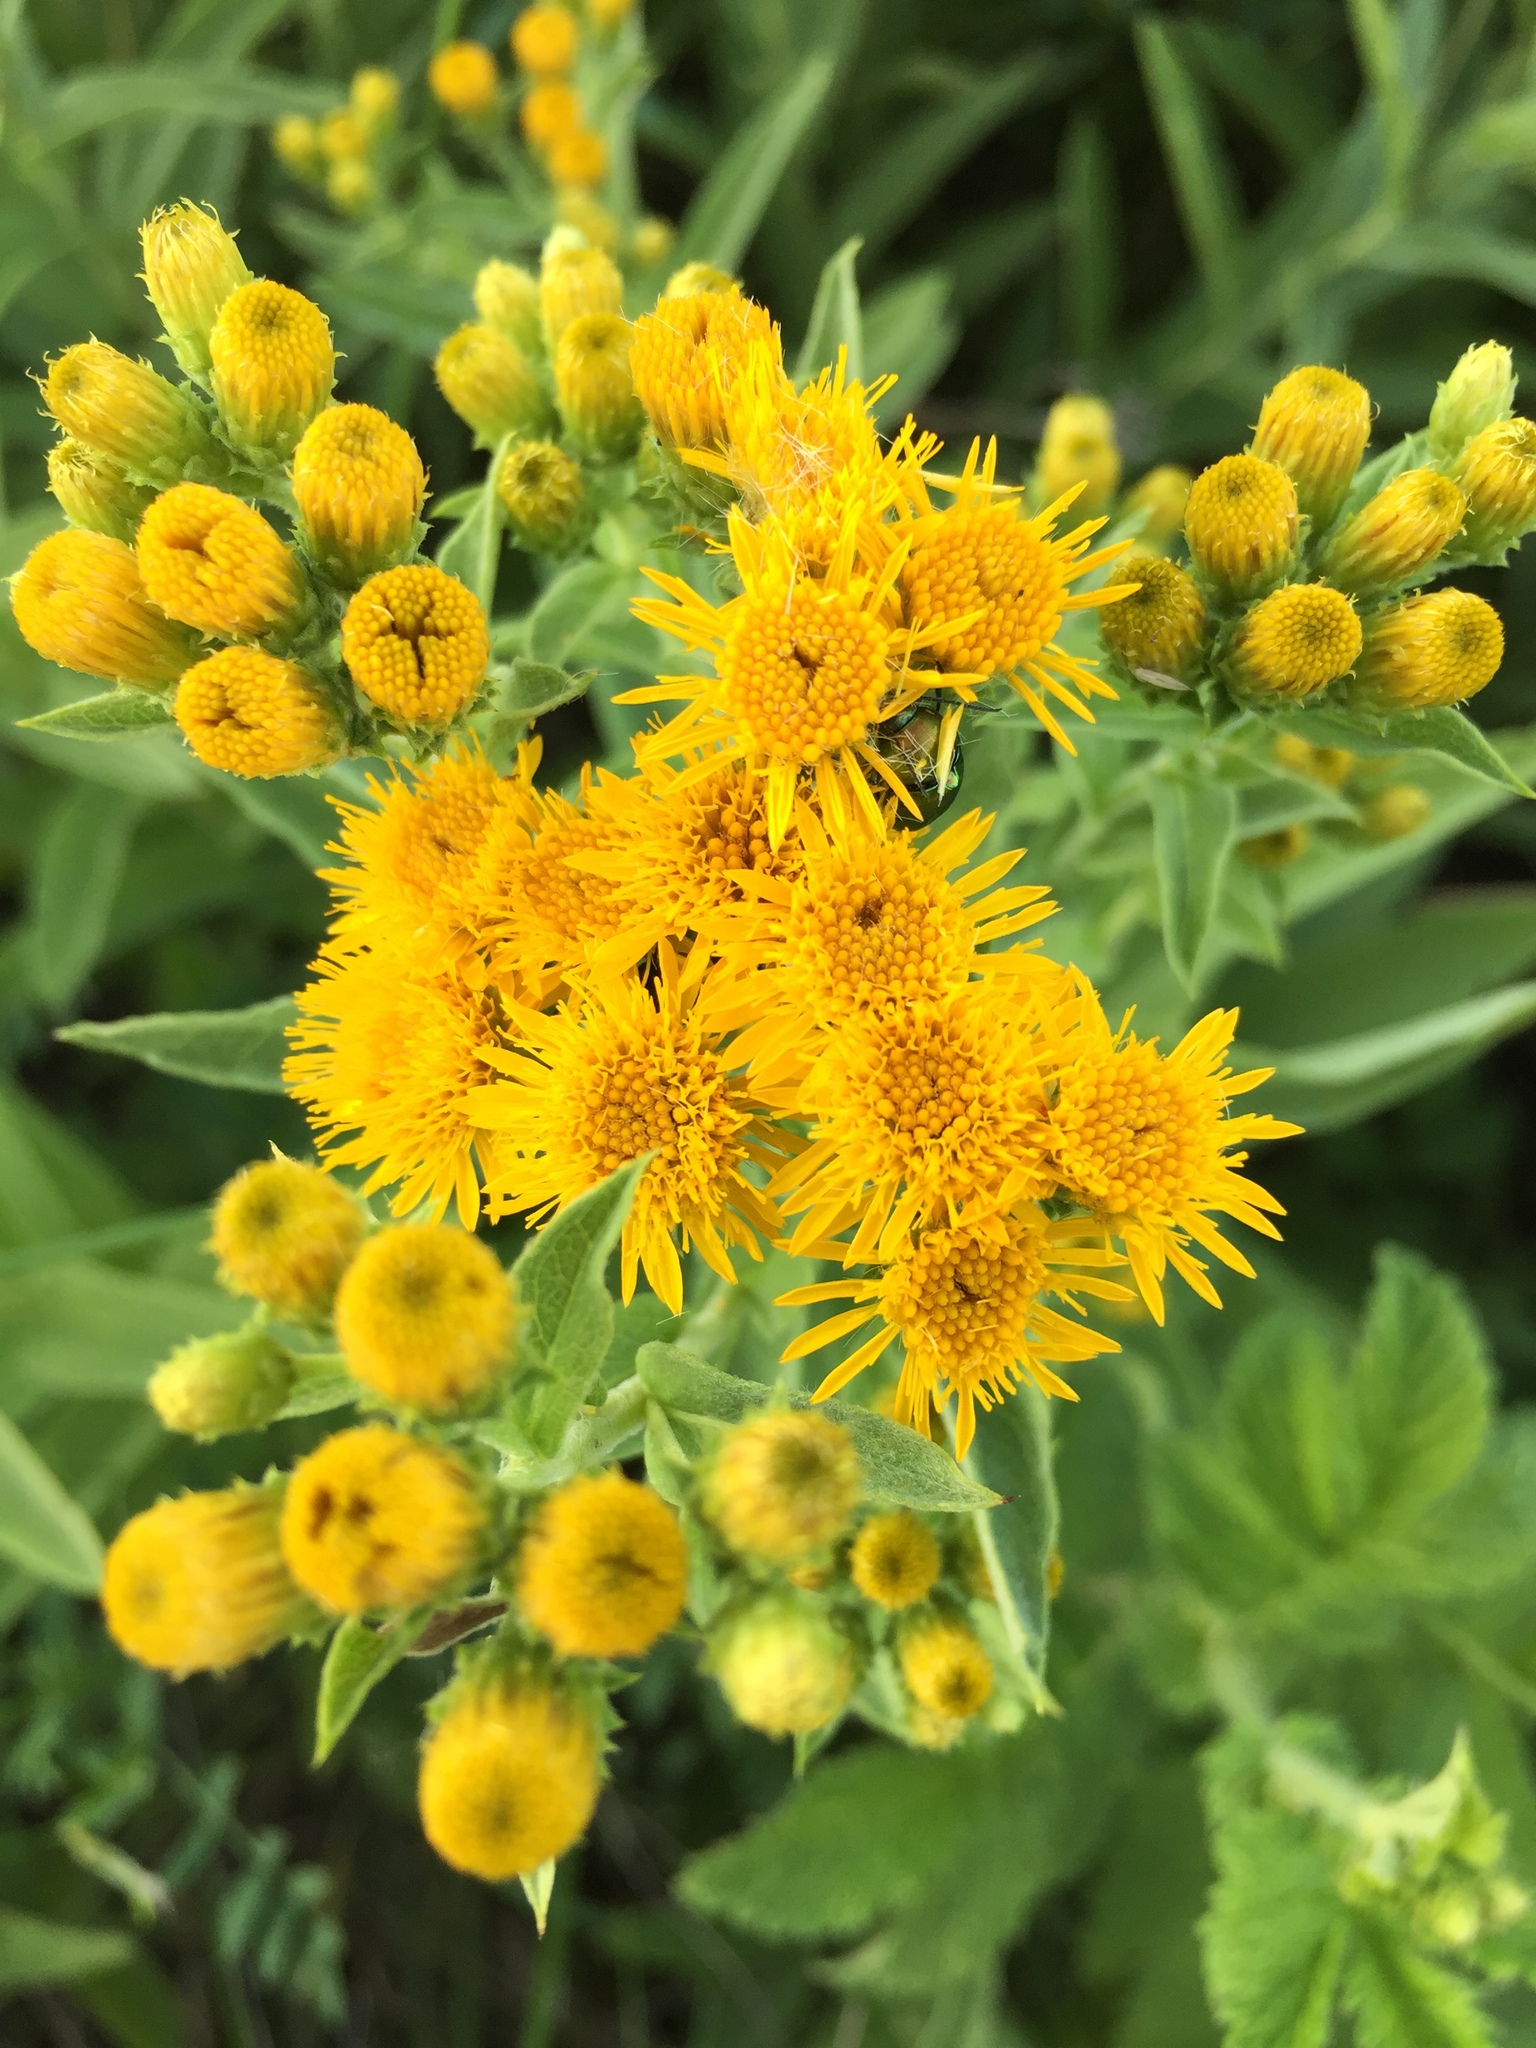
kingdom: Plantae
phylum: Tracheophyta
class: Magnoliopsida
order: Asterales
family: Asteraceae
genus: Pentanema
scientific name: Pentanema germanicum
